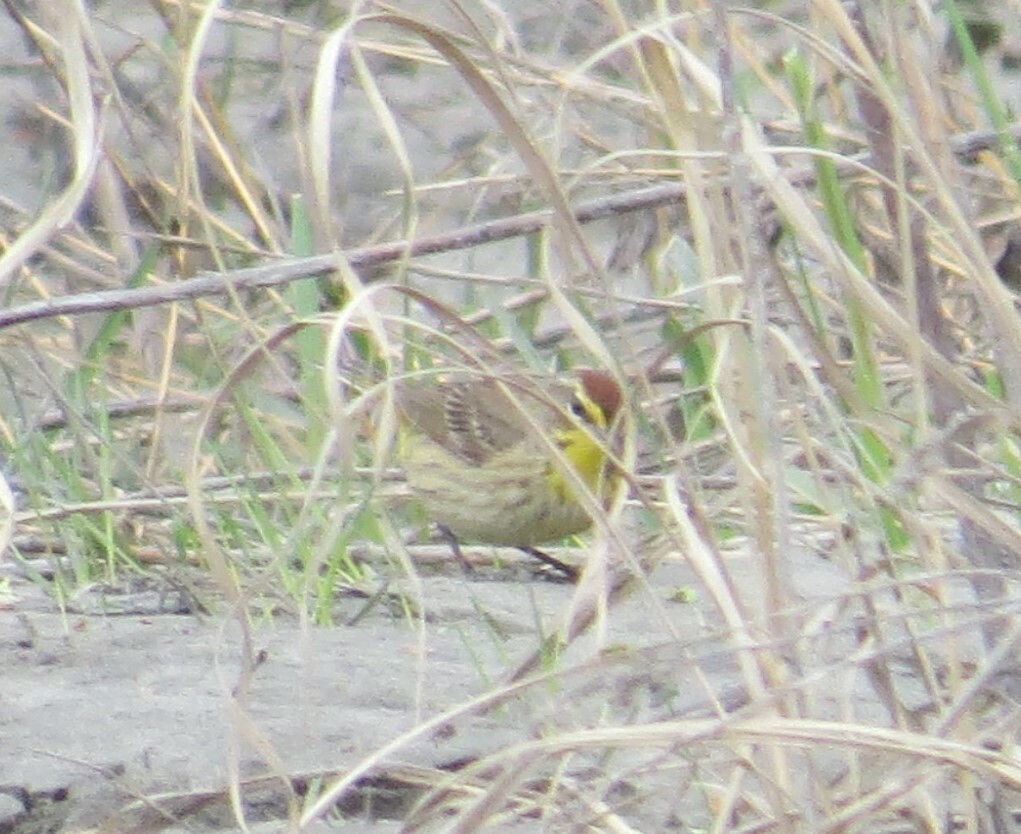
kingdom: Animalia
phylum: Chordata
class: Aves
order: Passeriformes
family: Parulidae
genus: Setophaga
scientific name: Setophaga palmarum
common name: Palm warbler
